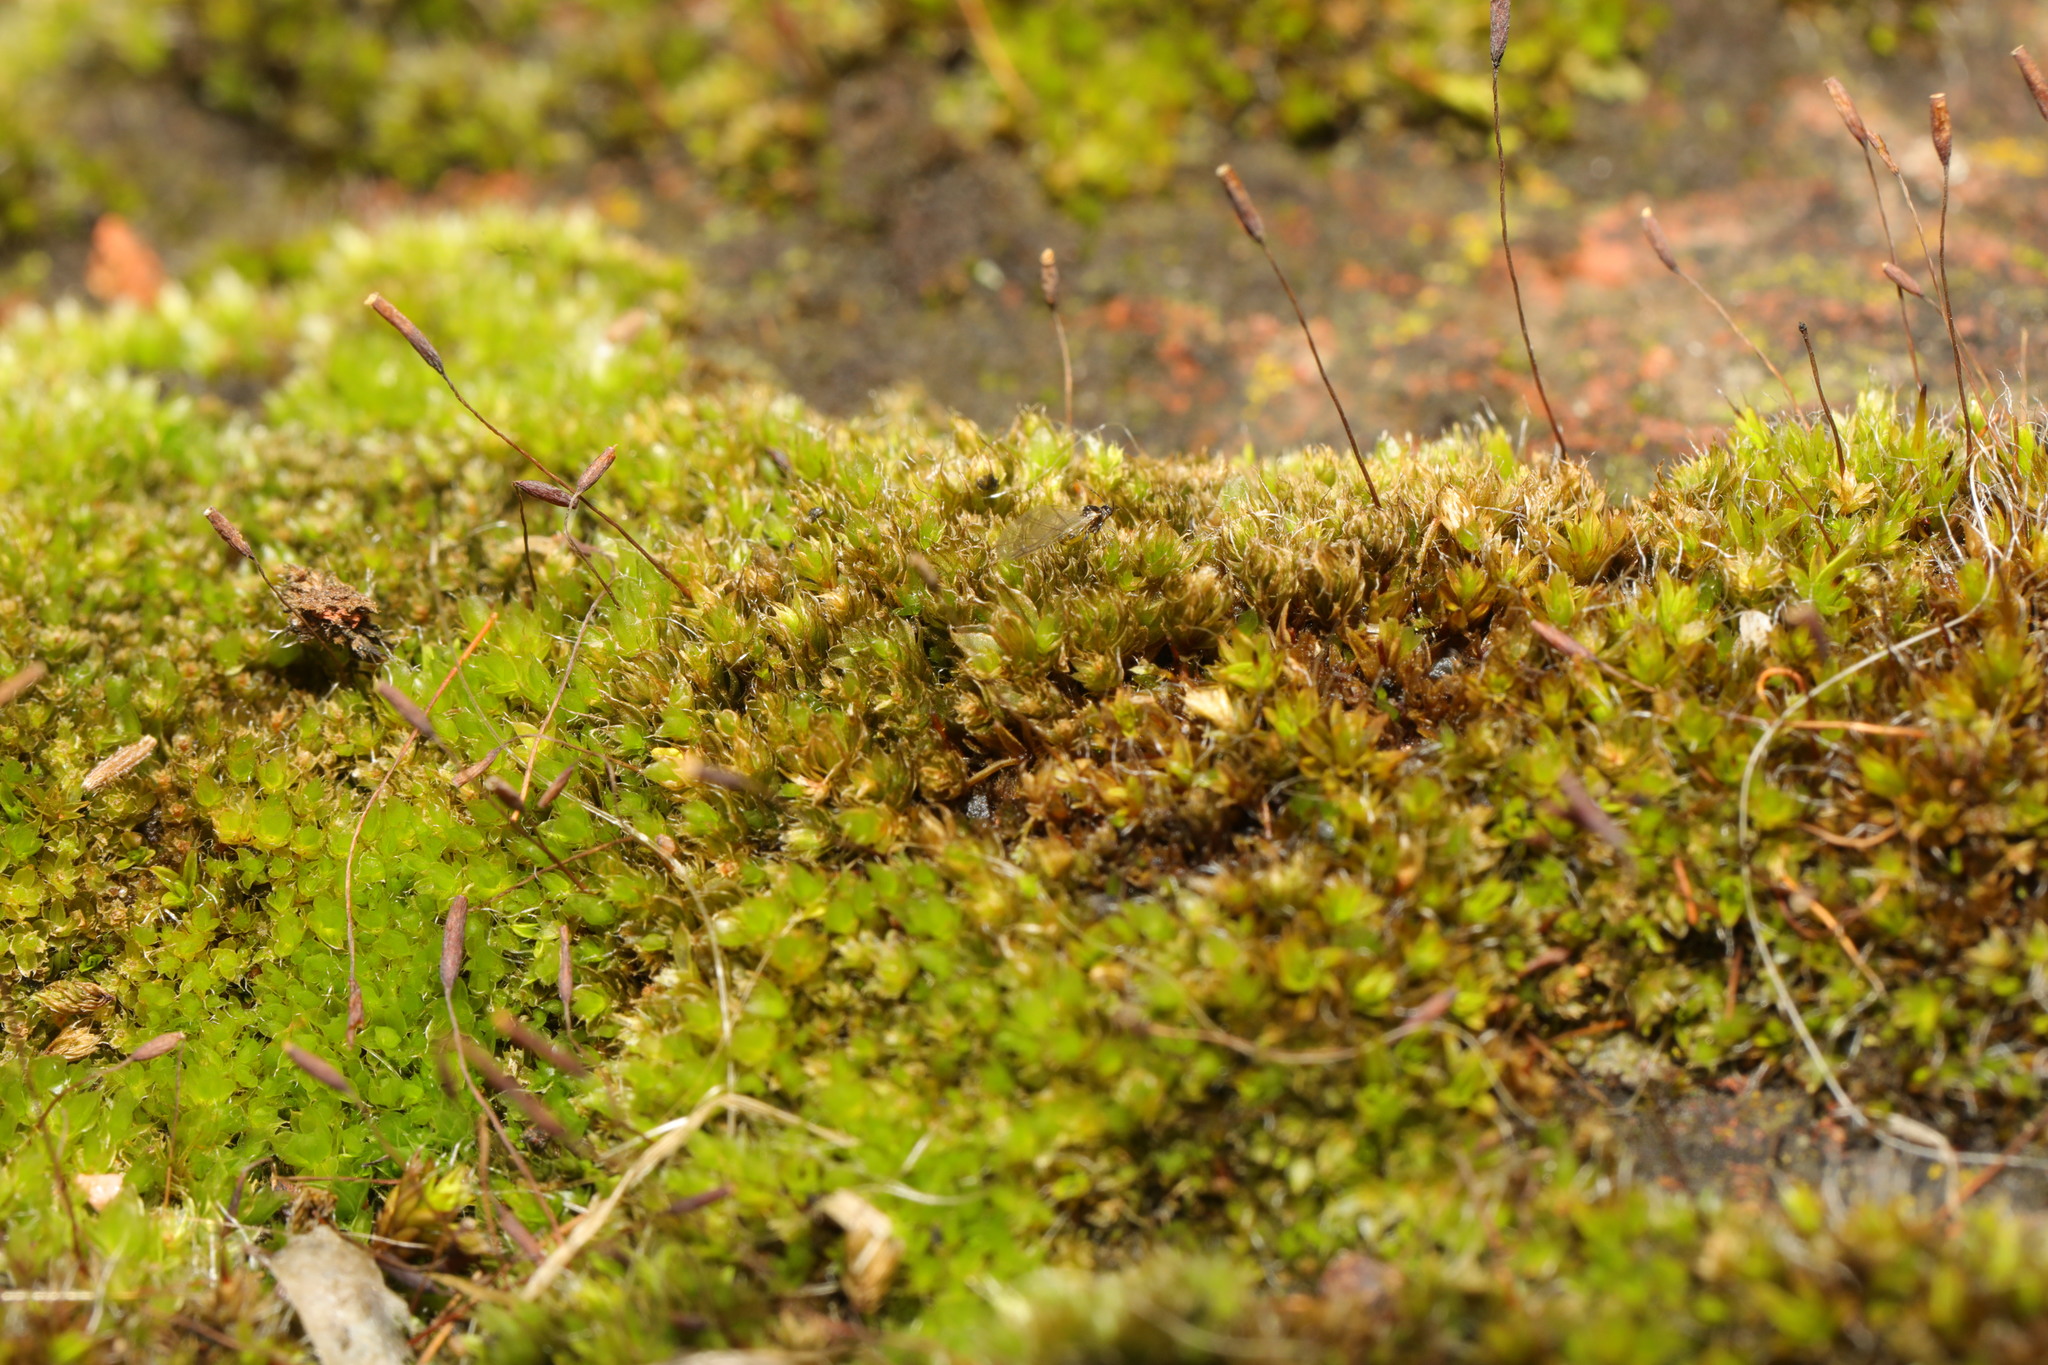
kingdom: Plantae
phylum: Bryophyta
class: Bryopsida
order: Pottiales
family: Pottiaceae
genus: Tortula
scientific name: Tortula muralis
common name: Wall screw-moss
